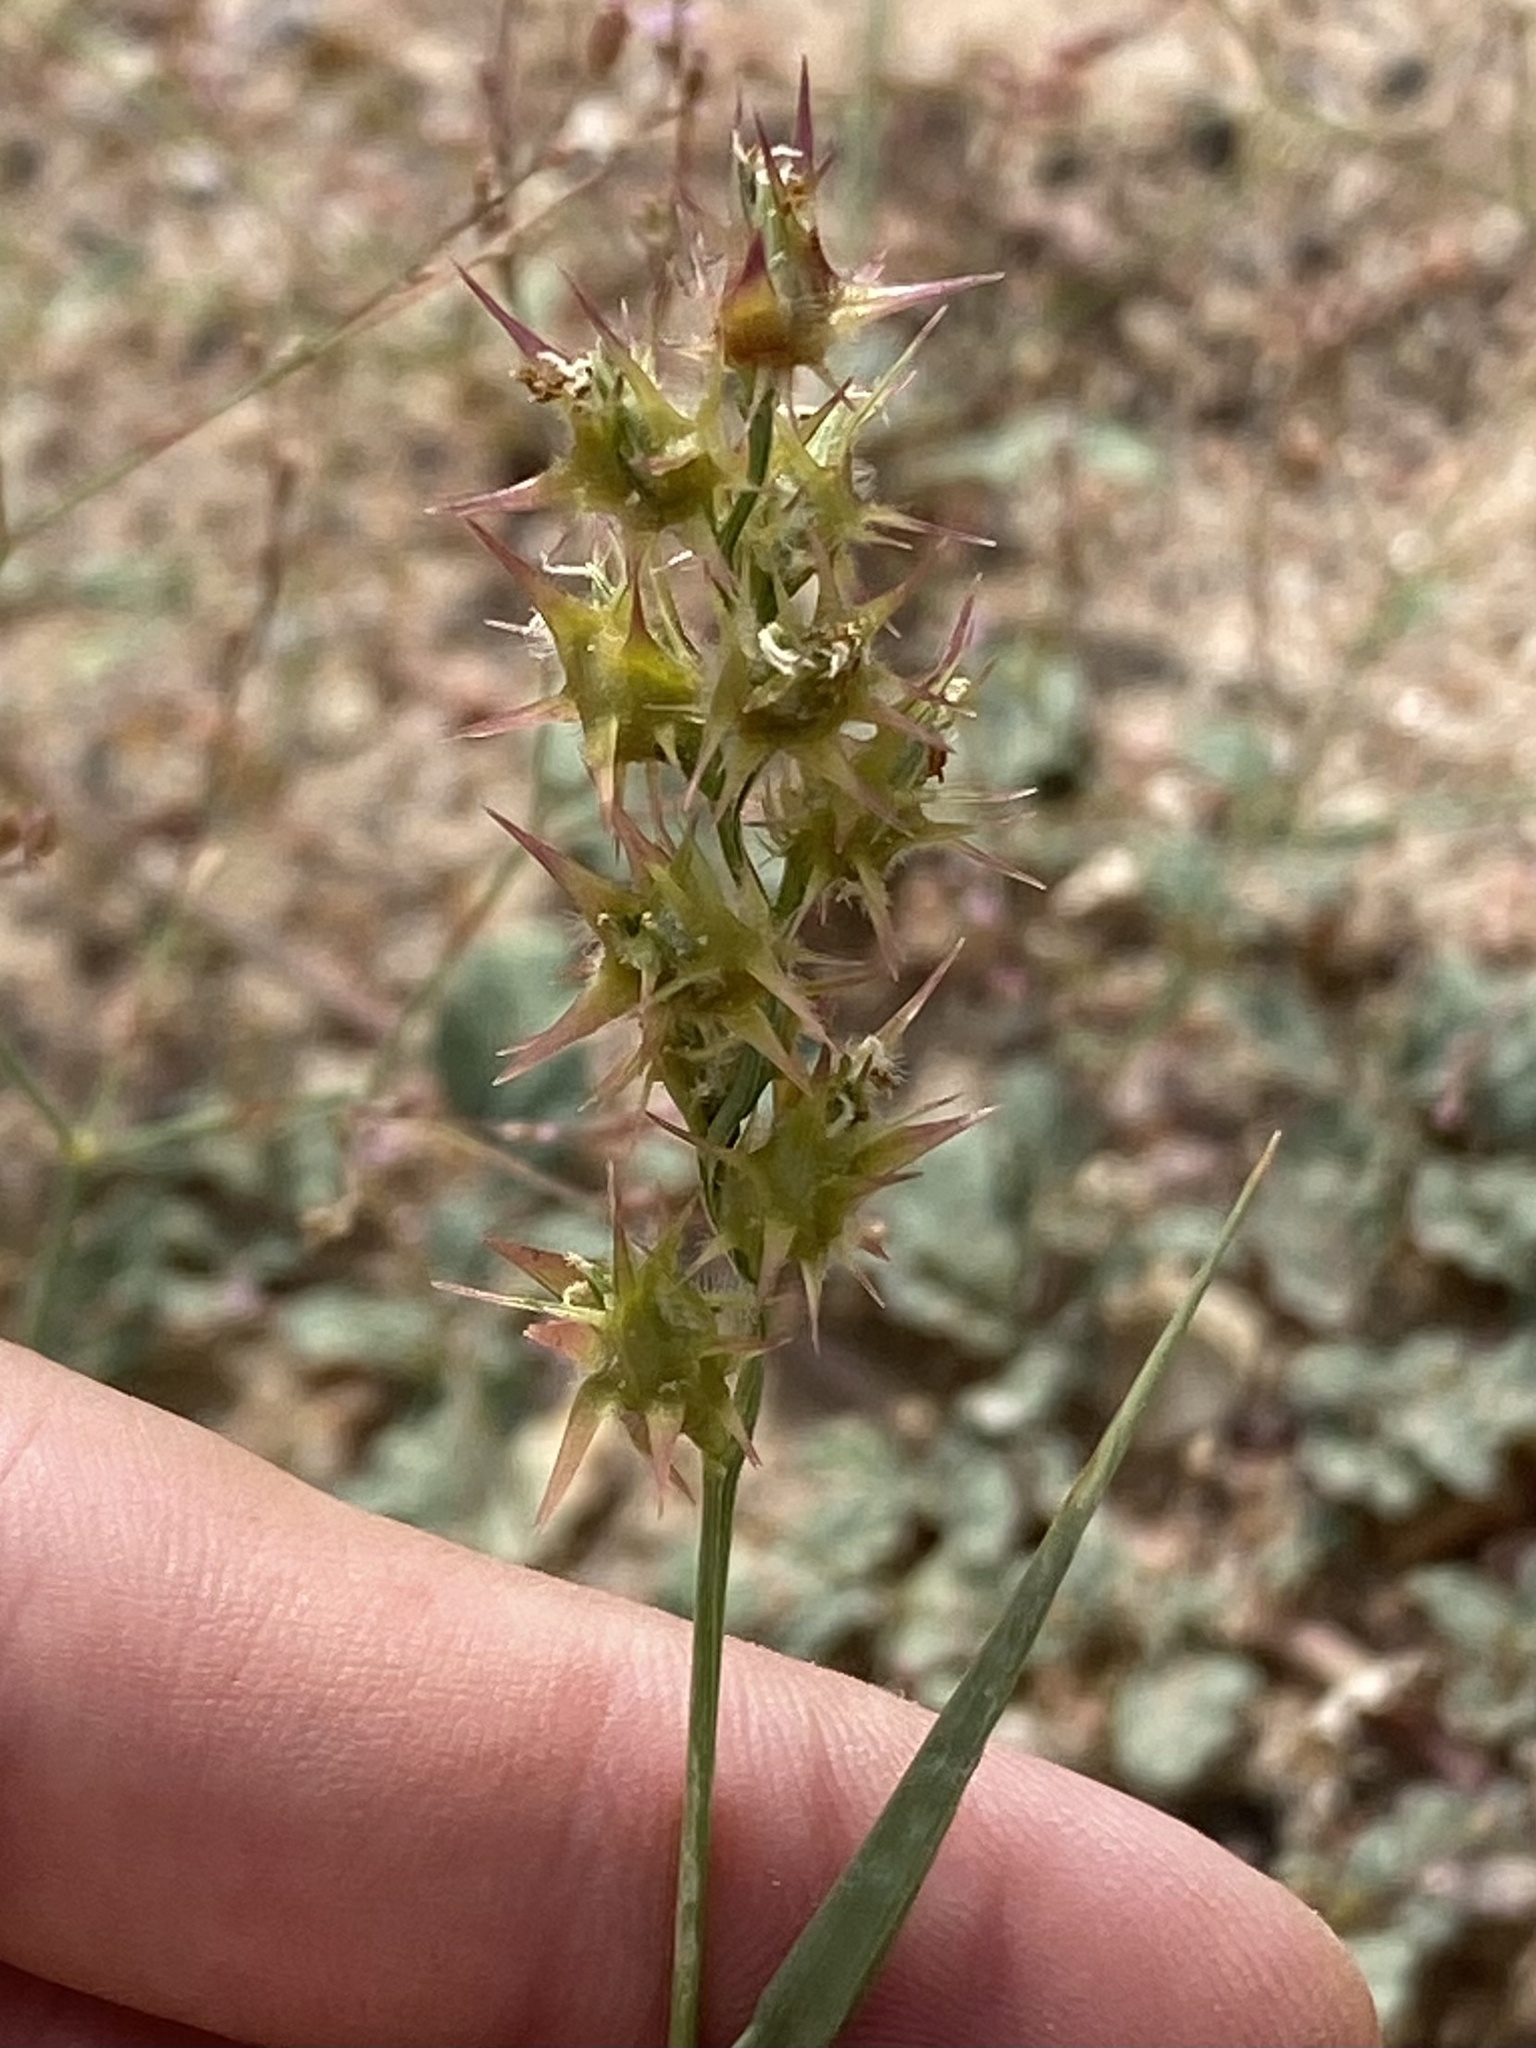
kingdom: Plantae
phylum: Tracheophyta
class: Liliopsida
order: Poales
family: Poaceae
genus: Cenchrus
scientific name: Cenchrus spinifex
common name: Coast sandbur
